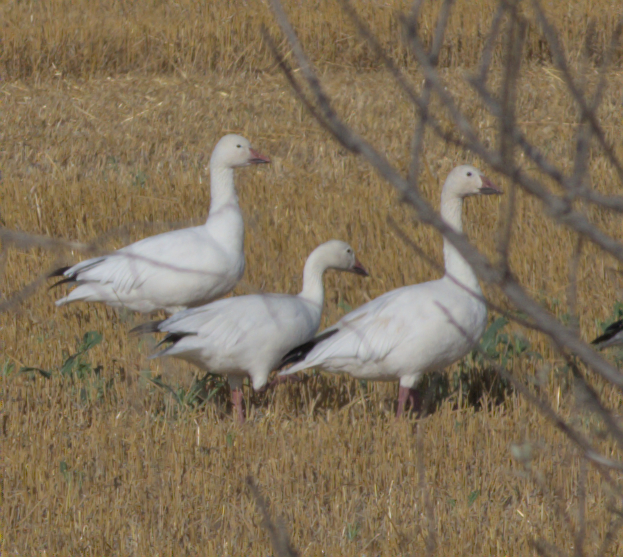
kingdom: Animalia
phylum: Chordata
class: Aves
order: Anseriformes
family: Anatidae
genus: Anser
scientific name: Anser caerulescens
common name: Snow goose
